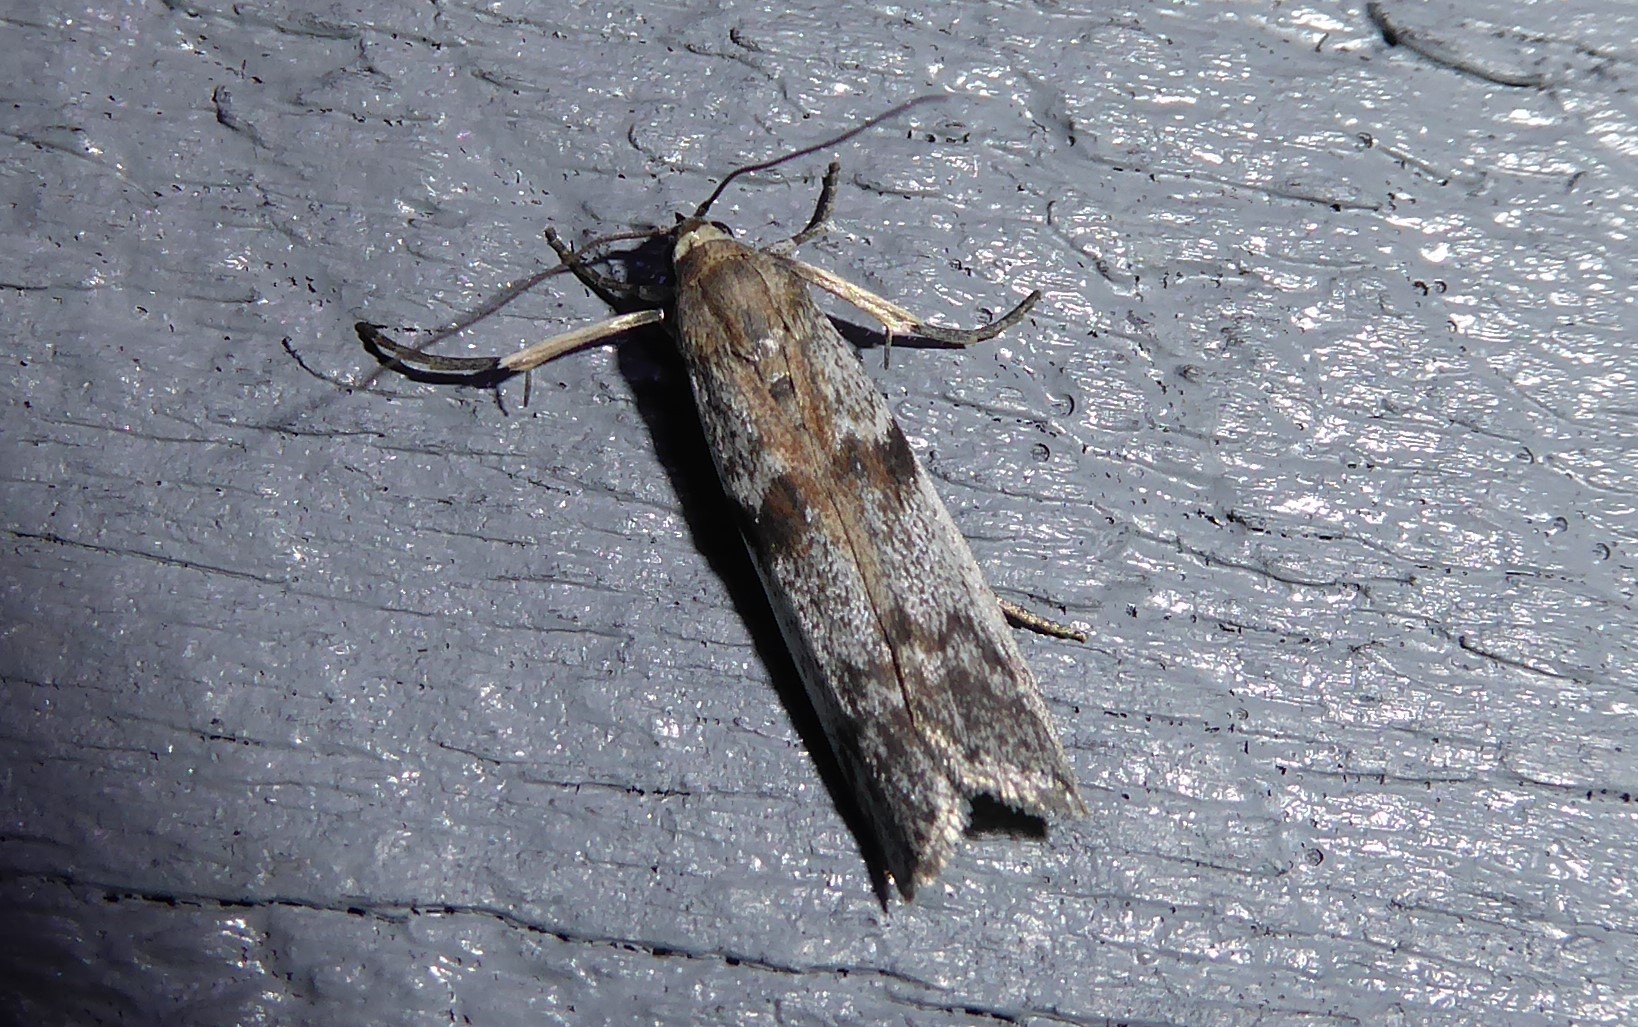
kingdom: Animalia
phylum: Arthropoda
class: Insecta
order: Lepidoptera
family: Pyralidae
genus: Patagoniodes
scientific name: Patagoniodes farinaria
